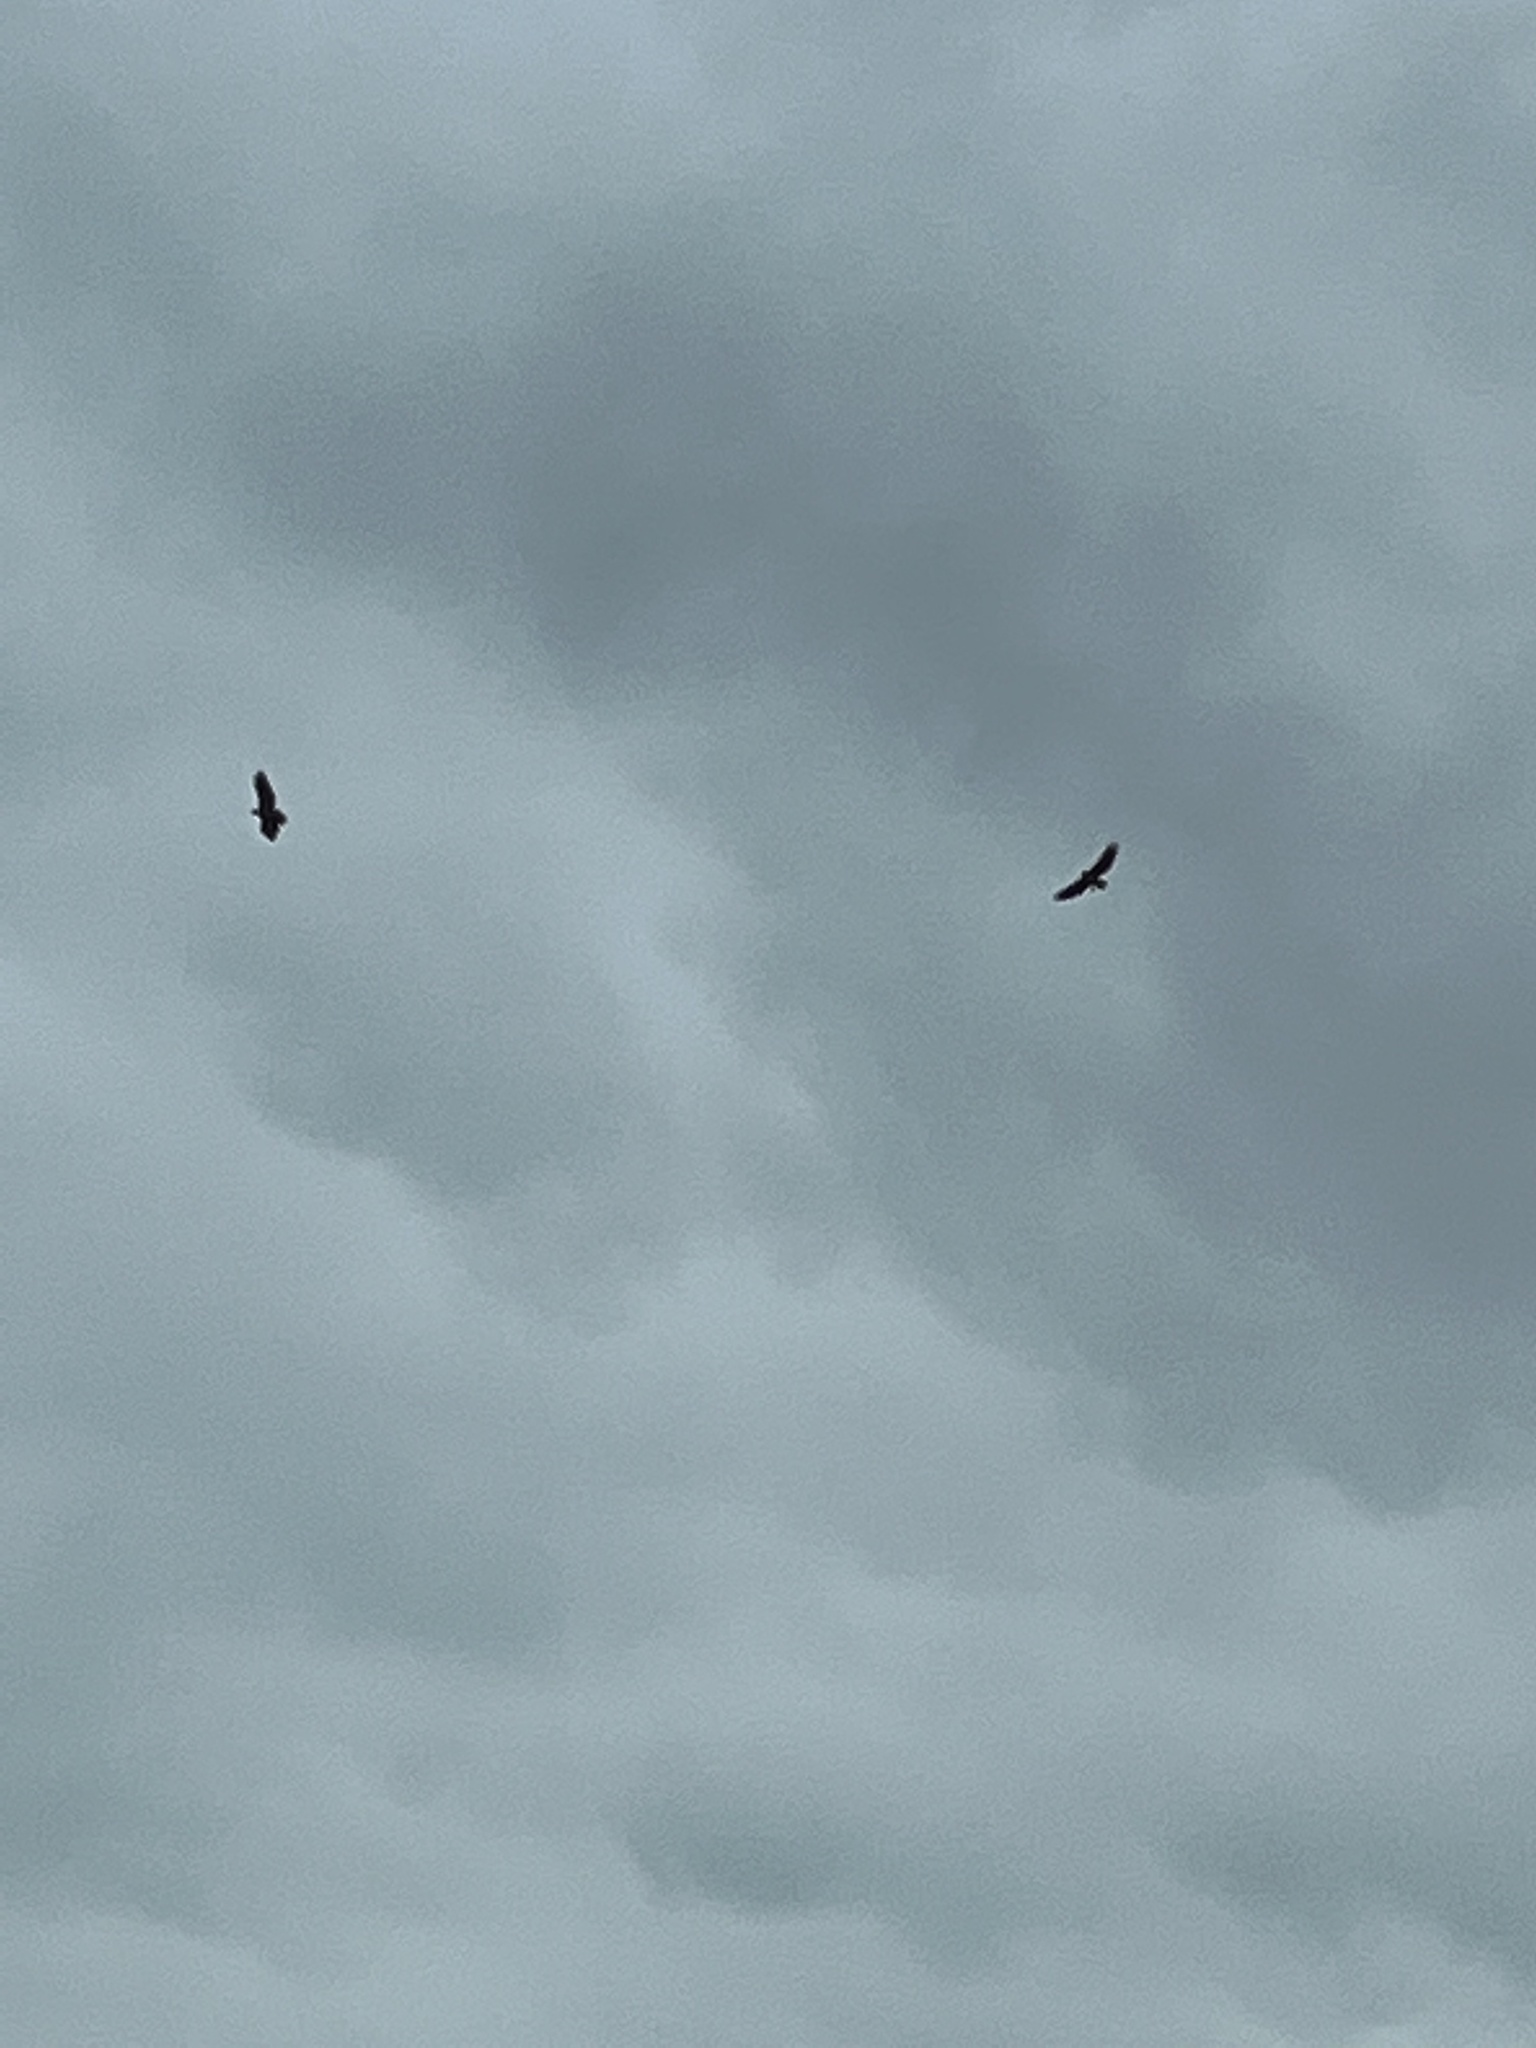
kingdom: Animalia
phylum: Chordata
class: Aves
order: Accipitriformes
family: Accipitridae
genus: Buteo
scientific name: Buteo jamaicensis
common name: Red-tailed hawk
